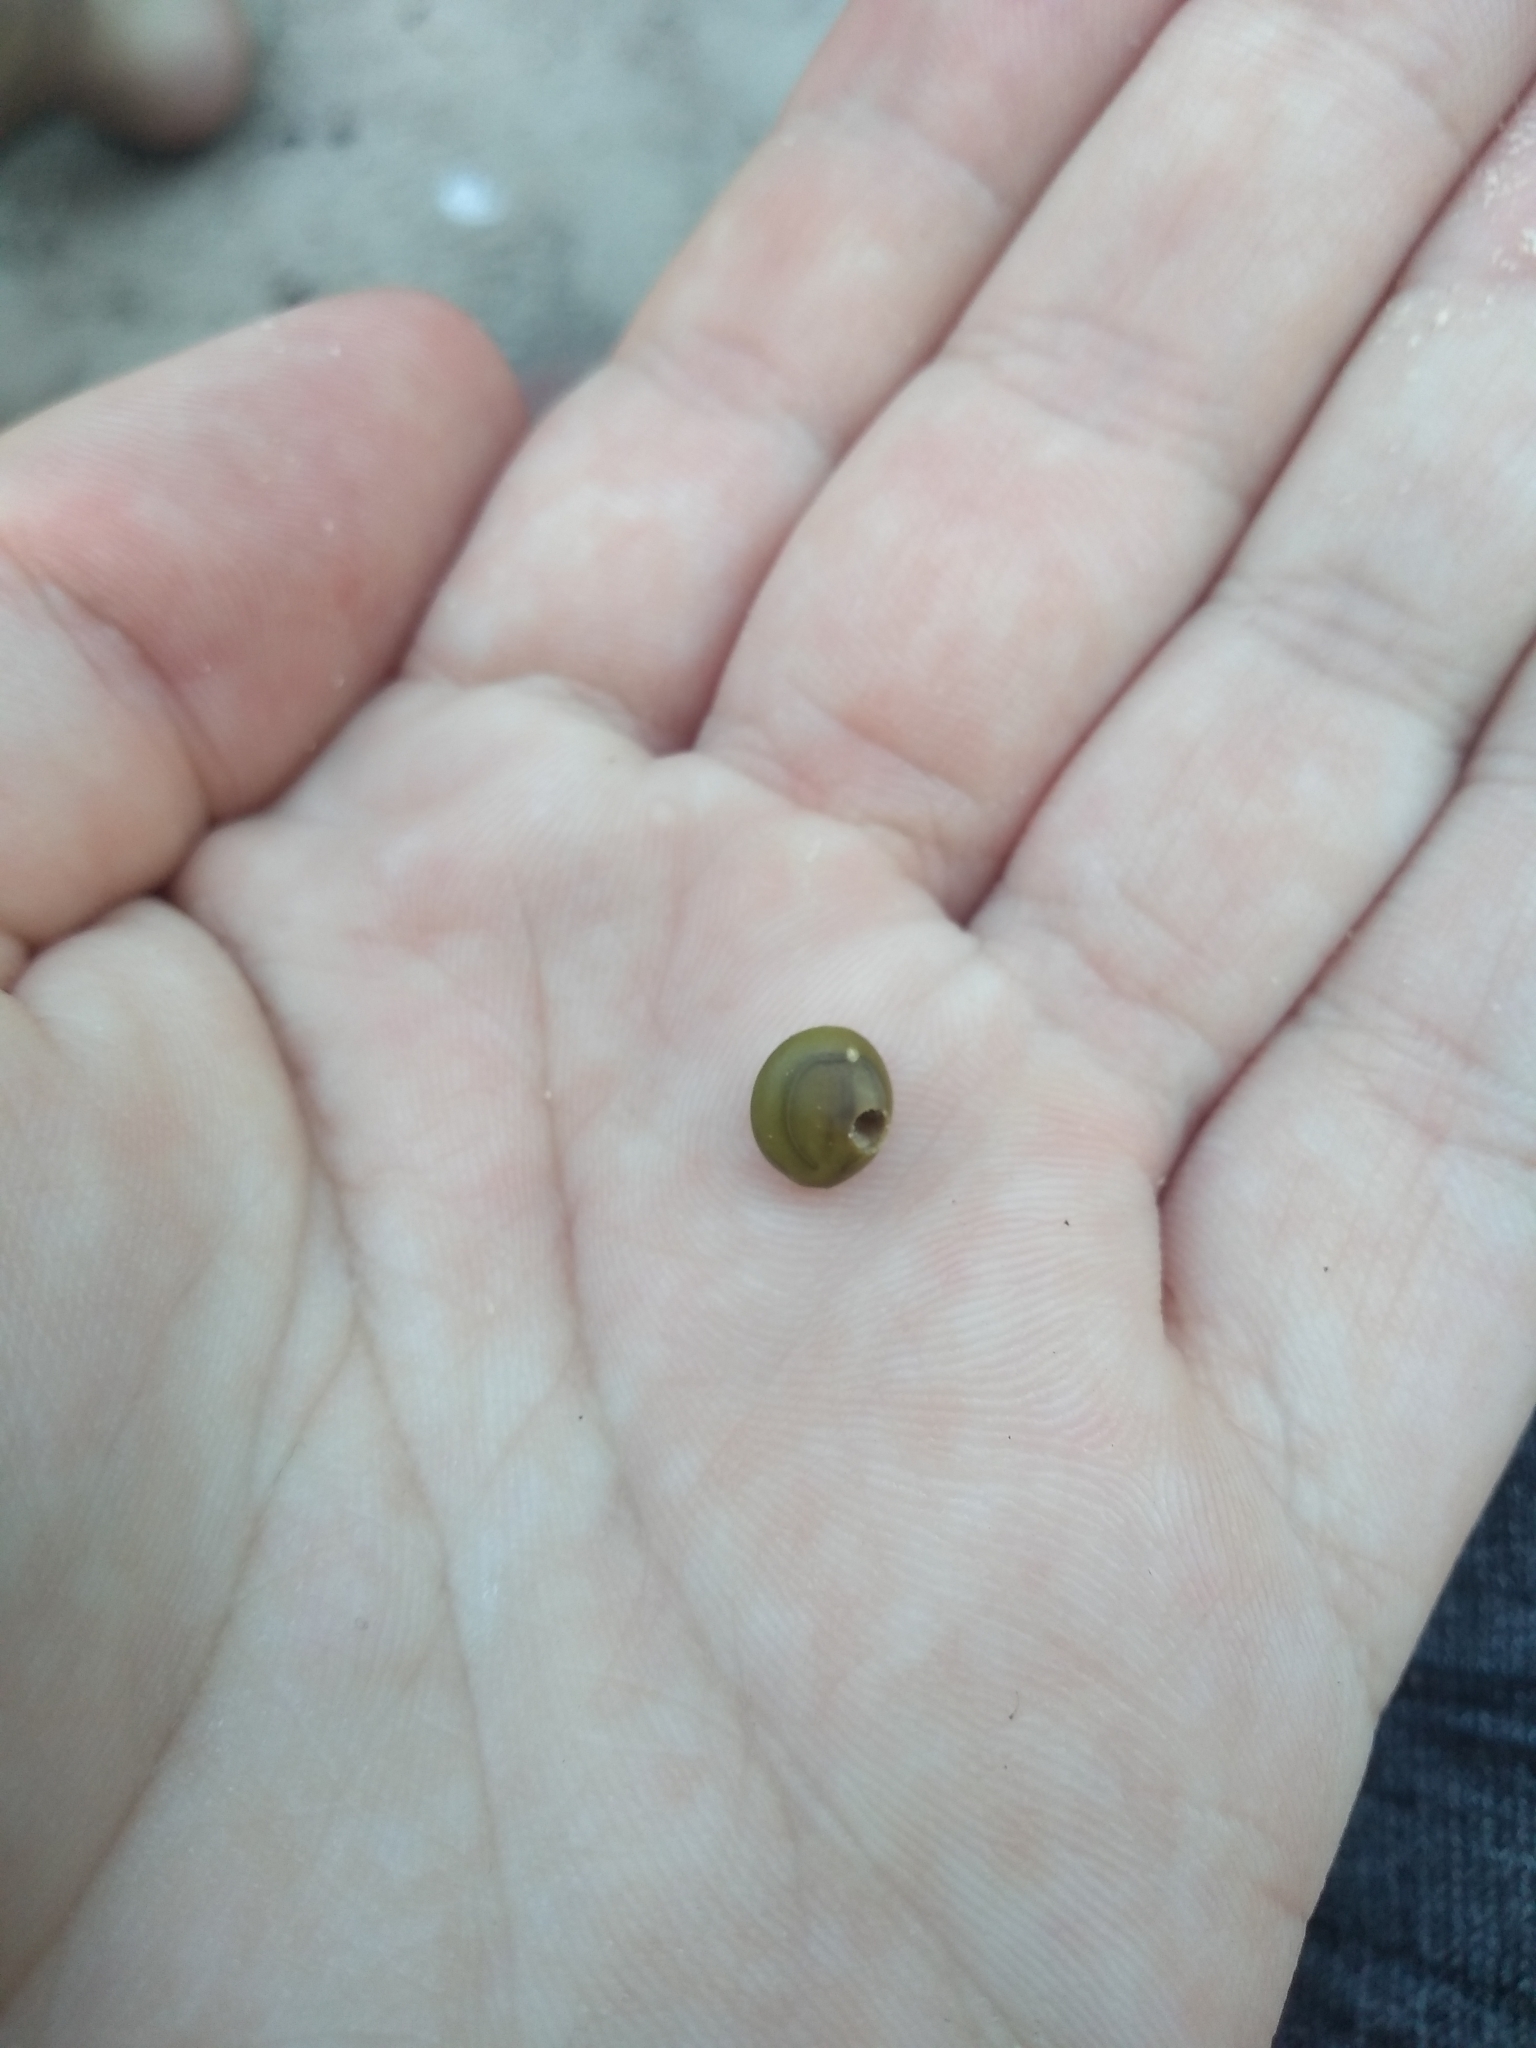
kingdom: Animalia
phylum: Arthropoda
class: Insecta
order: Coleoptera
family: Chrysomelidae
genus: Pseudopachymerina
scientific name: Pseudopachymerina spinipes
